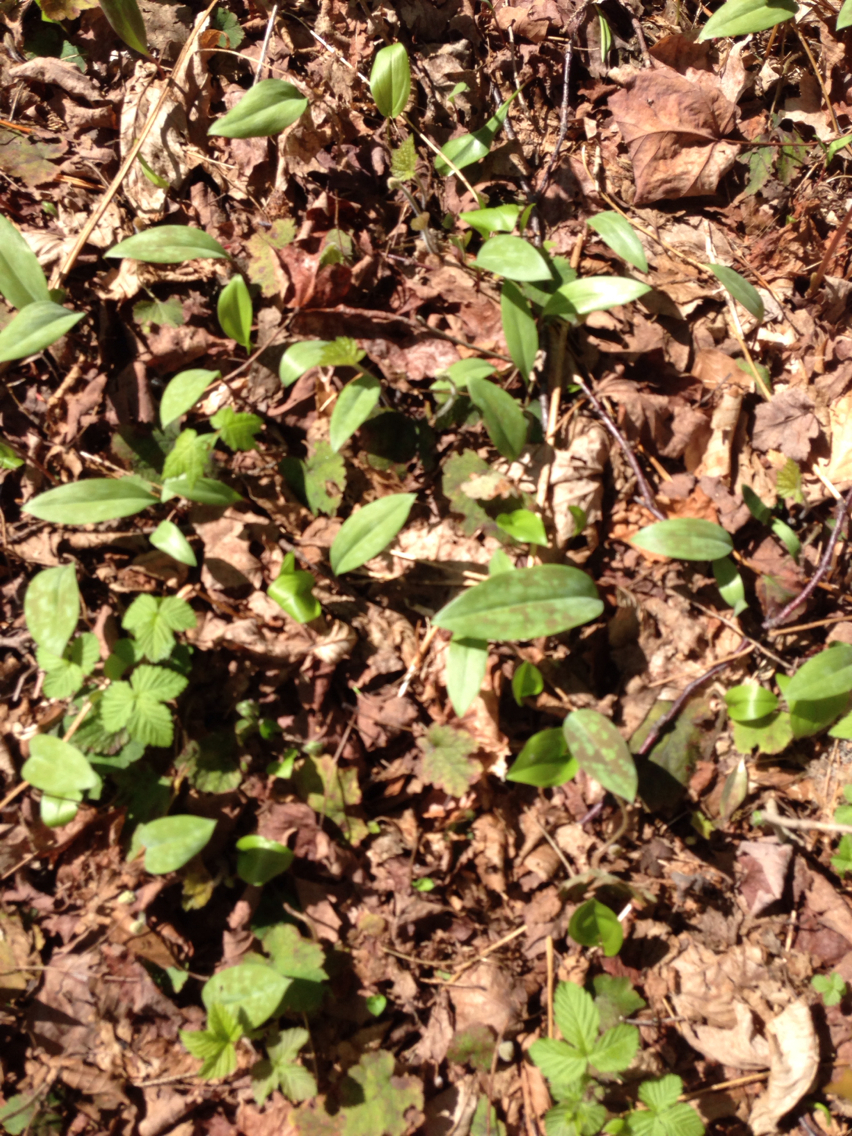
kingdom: Plantae
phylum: Tracheophyta
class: Liliopsida
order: Liliales
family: Liliaceae
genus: Erythronium
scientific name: Erythronium americanum
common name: Yellow adder's-tongue
